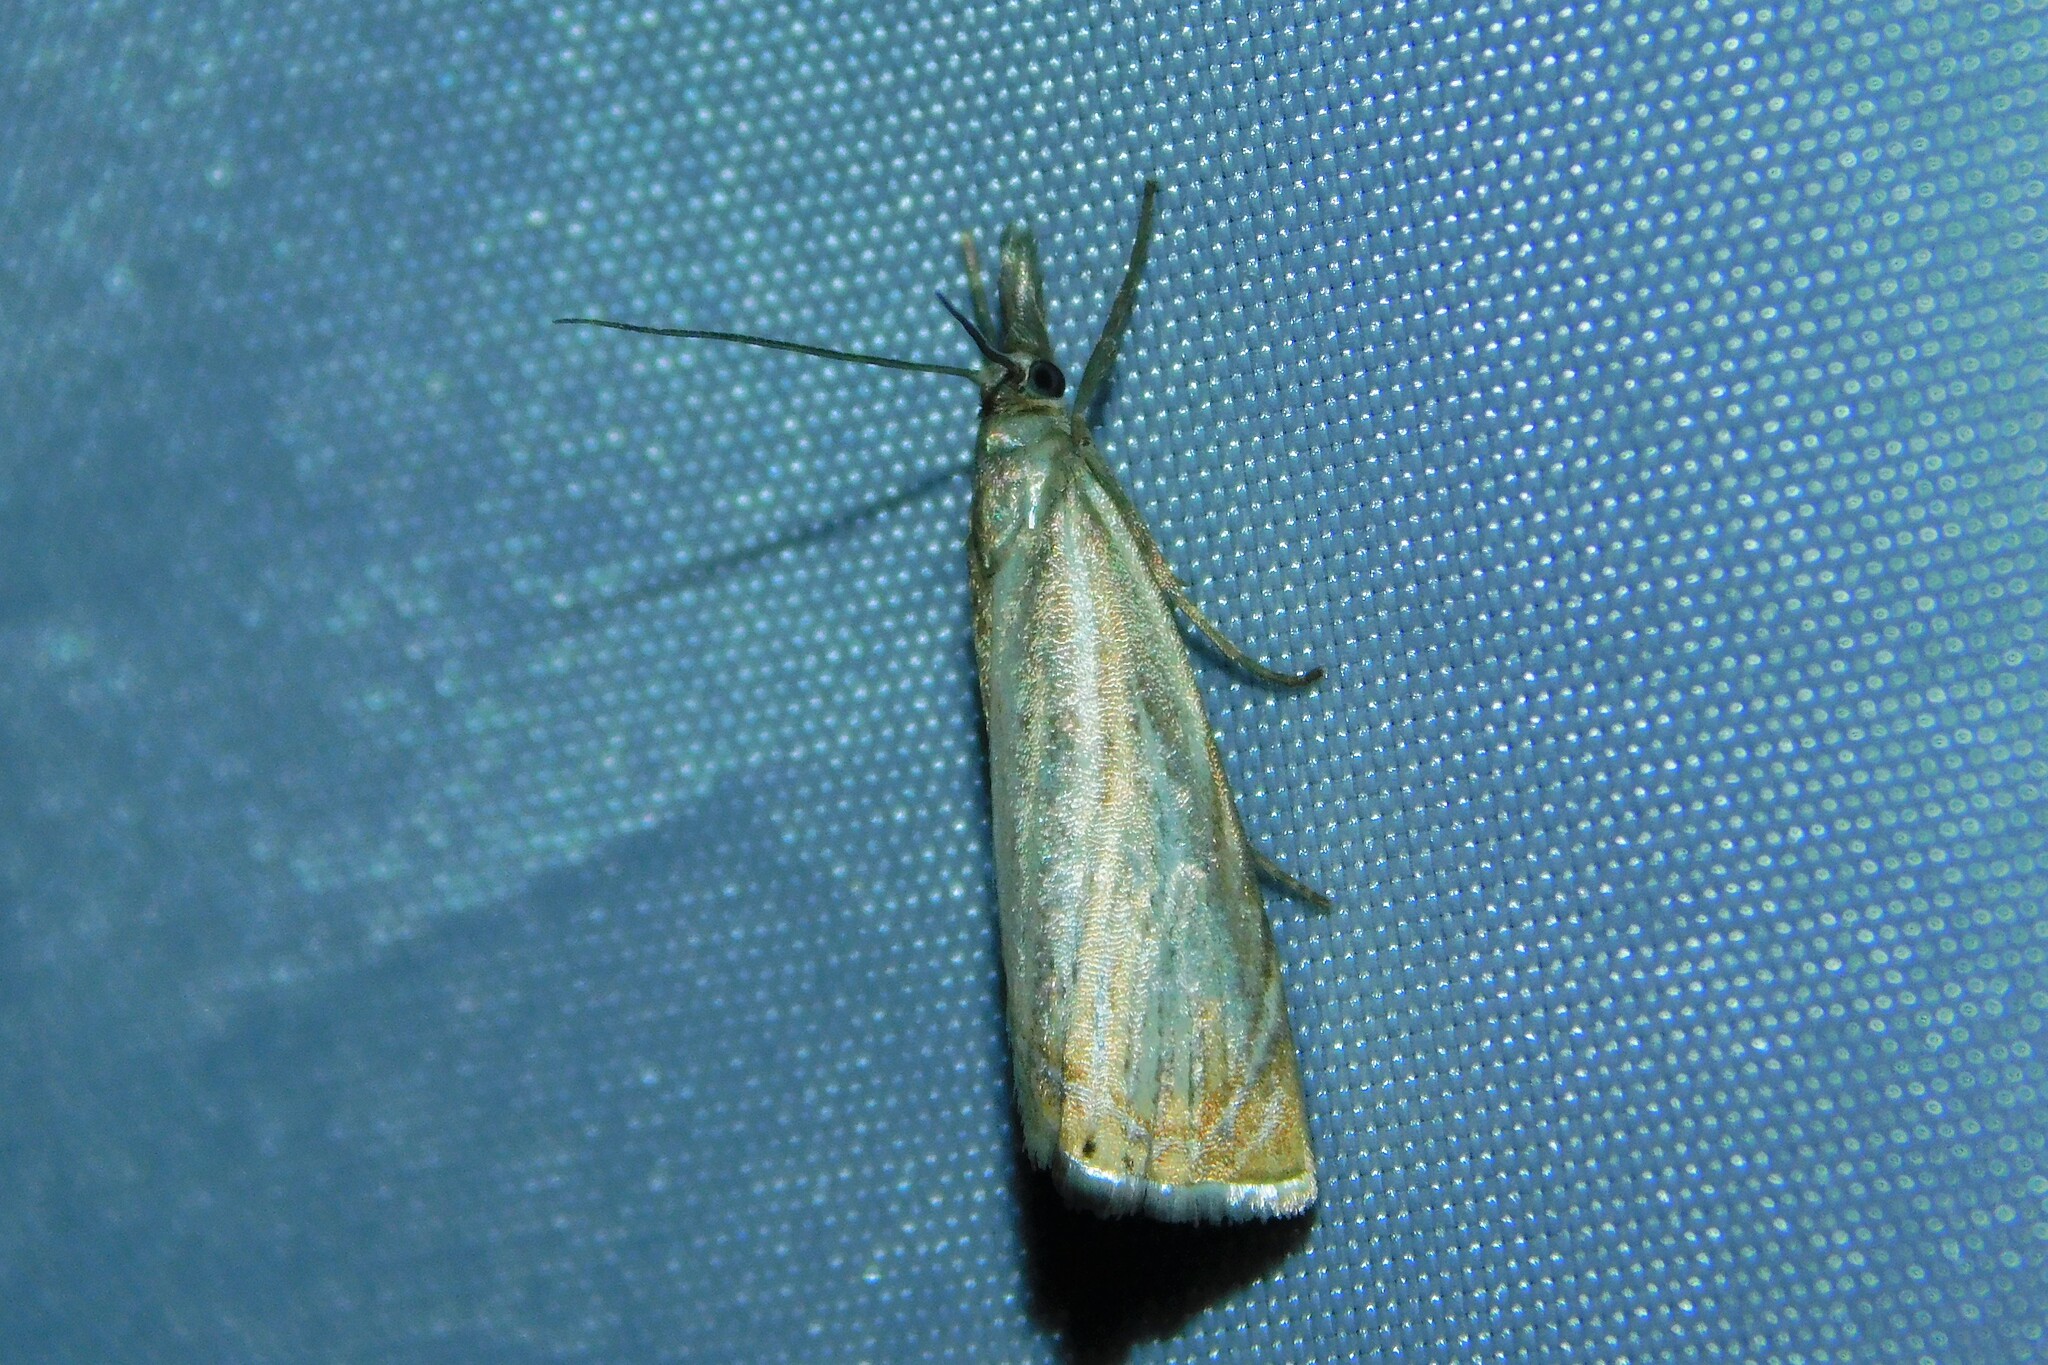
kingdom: Animalia
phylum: Arthropoda
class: Insecta
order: Lepidoptera
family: Crambidae
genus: Chrysoteuchia
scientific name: Chrysoteuchia culmella
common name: Garden grass-veneer
